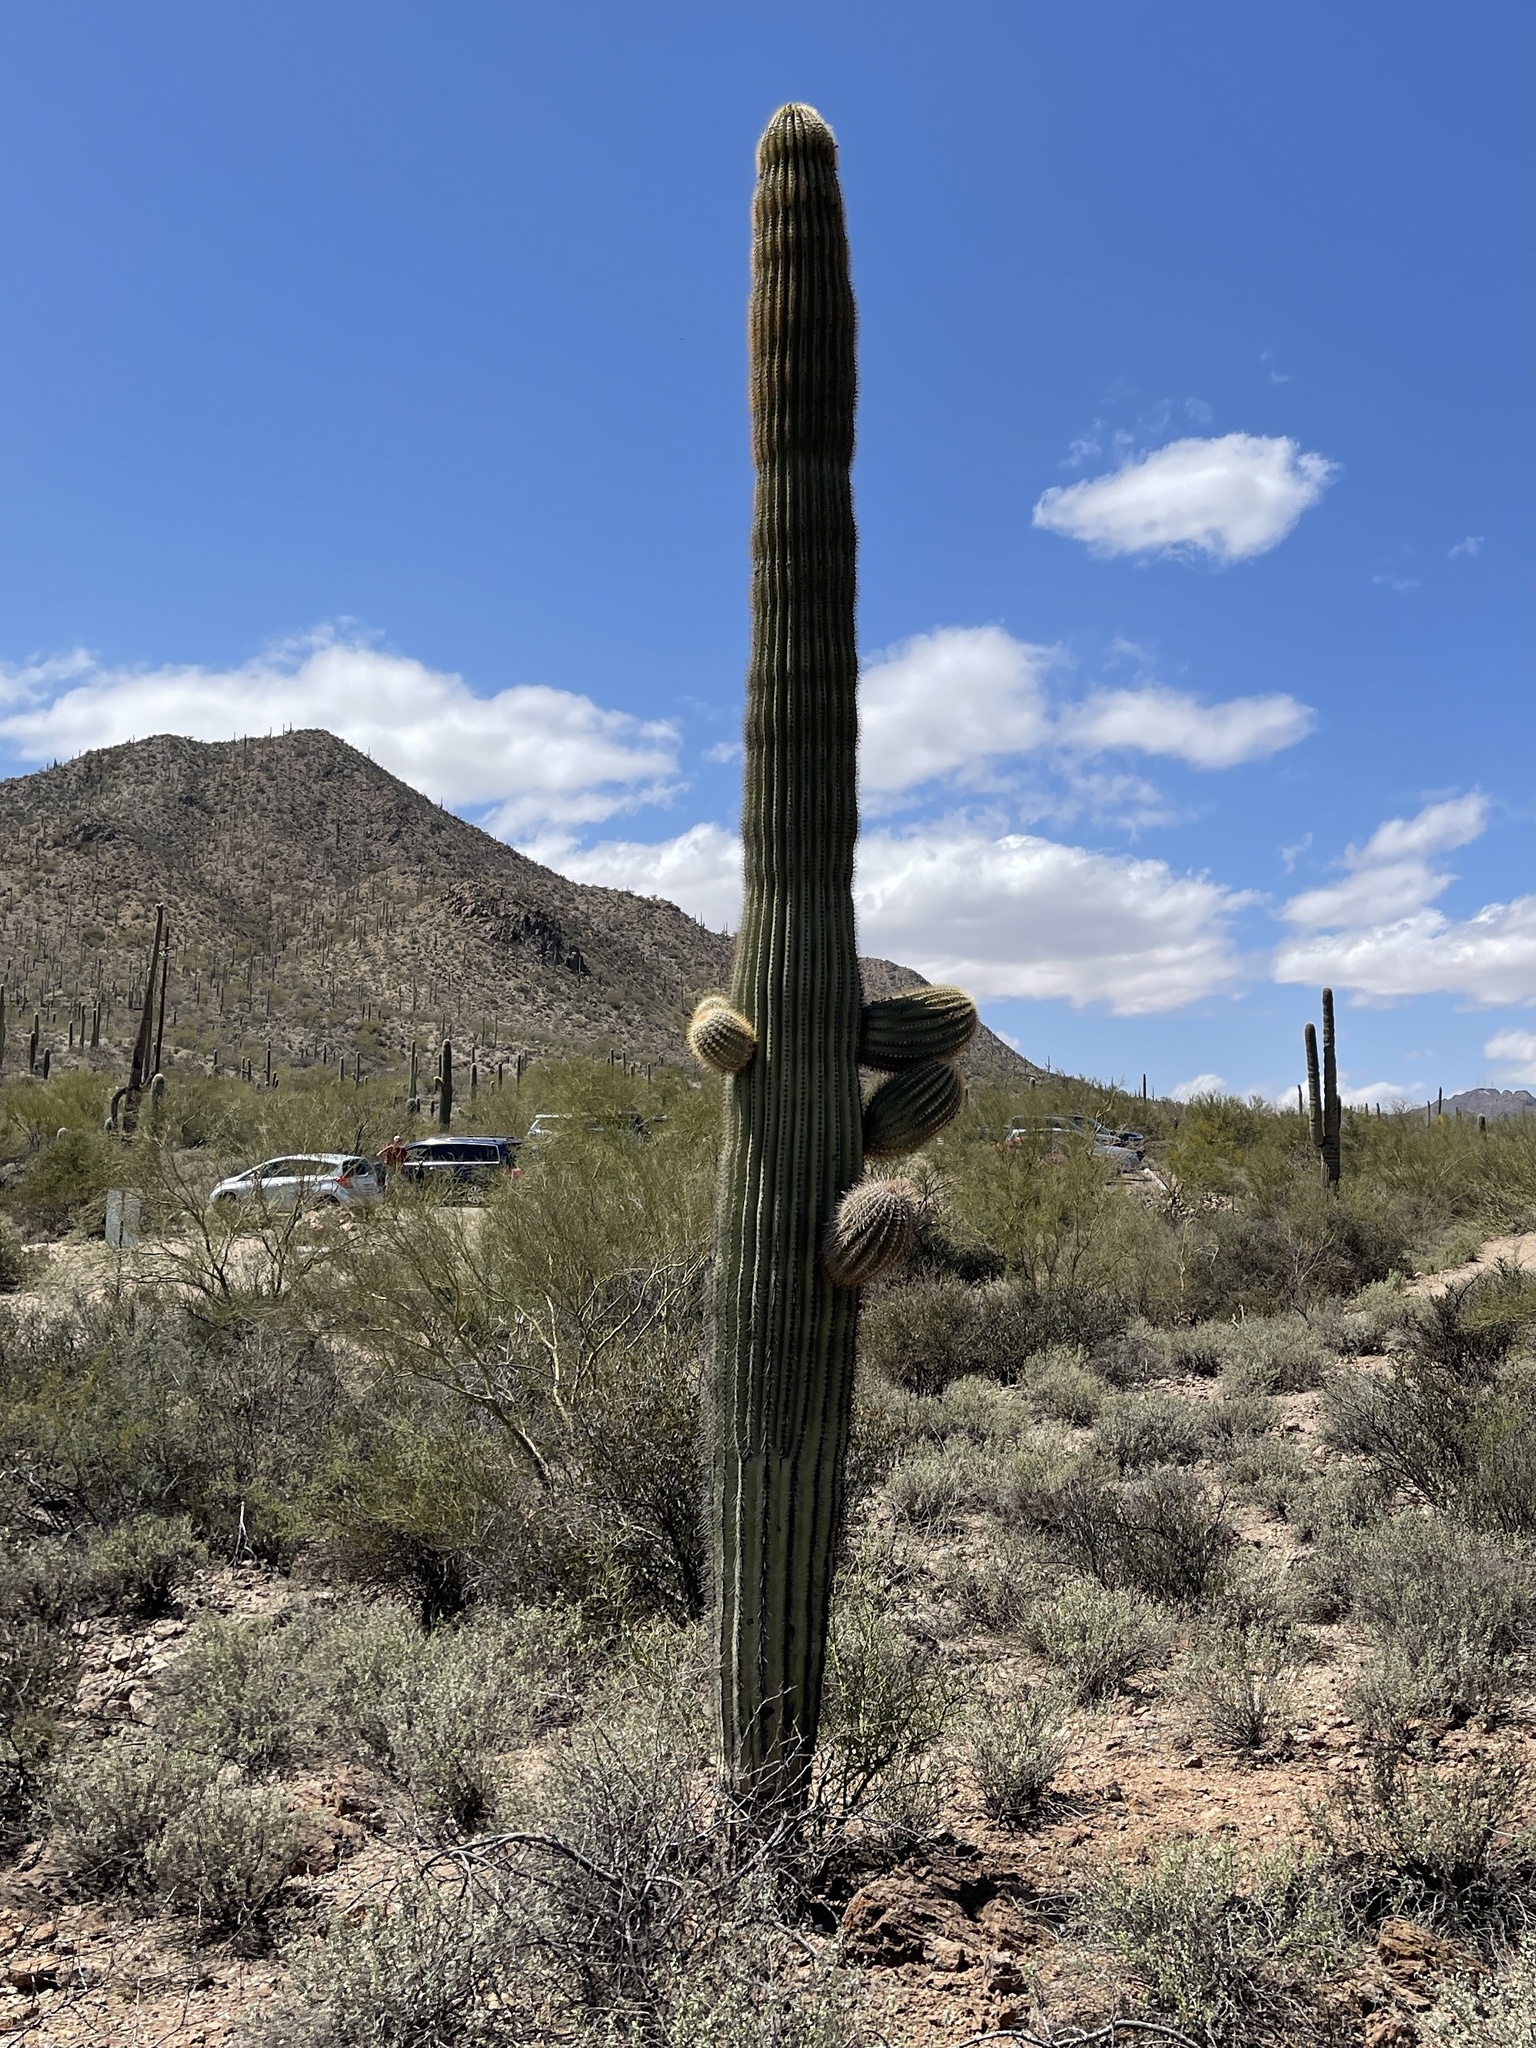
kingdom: Plantae
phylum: Tracheophyta
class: Magnoliopsida
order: Caryophyllales
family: Cactaceae
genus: Carnegiea
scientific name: Carnegiea gigantea
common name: Saguaro
